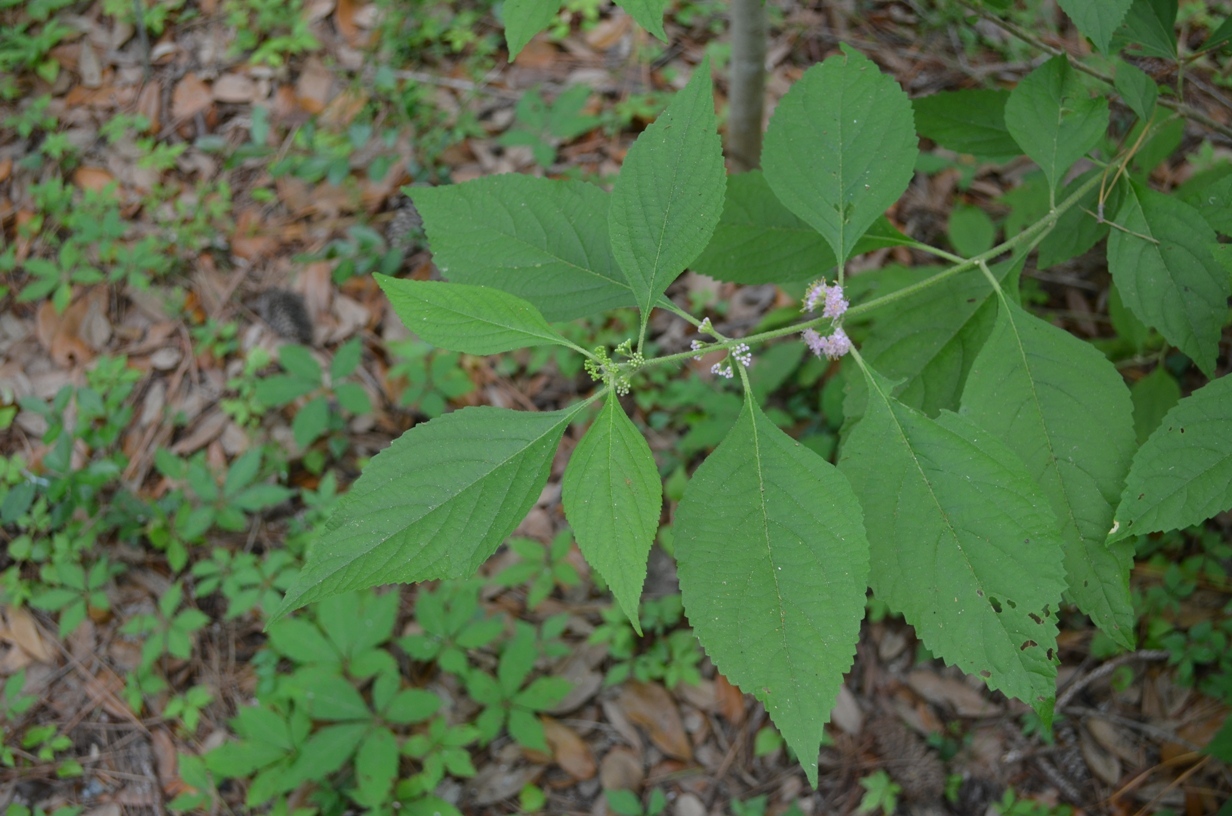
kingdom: Plantae
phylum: Tracheophyta
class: Magnoliopsida
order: Lamiales
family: Lamiaceae
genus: Callicarpa
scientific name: Callicarpa americana
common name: American beautyberry
